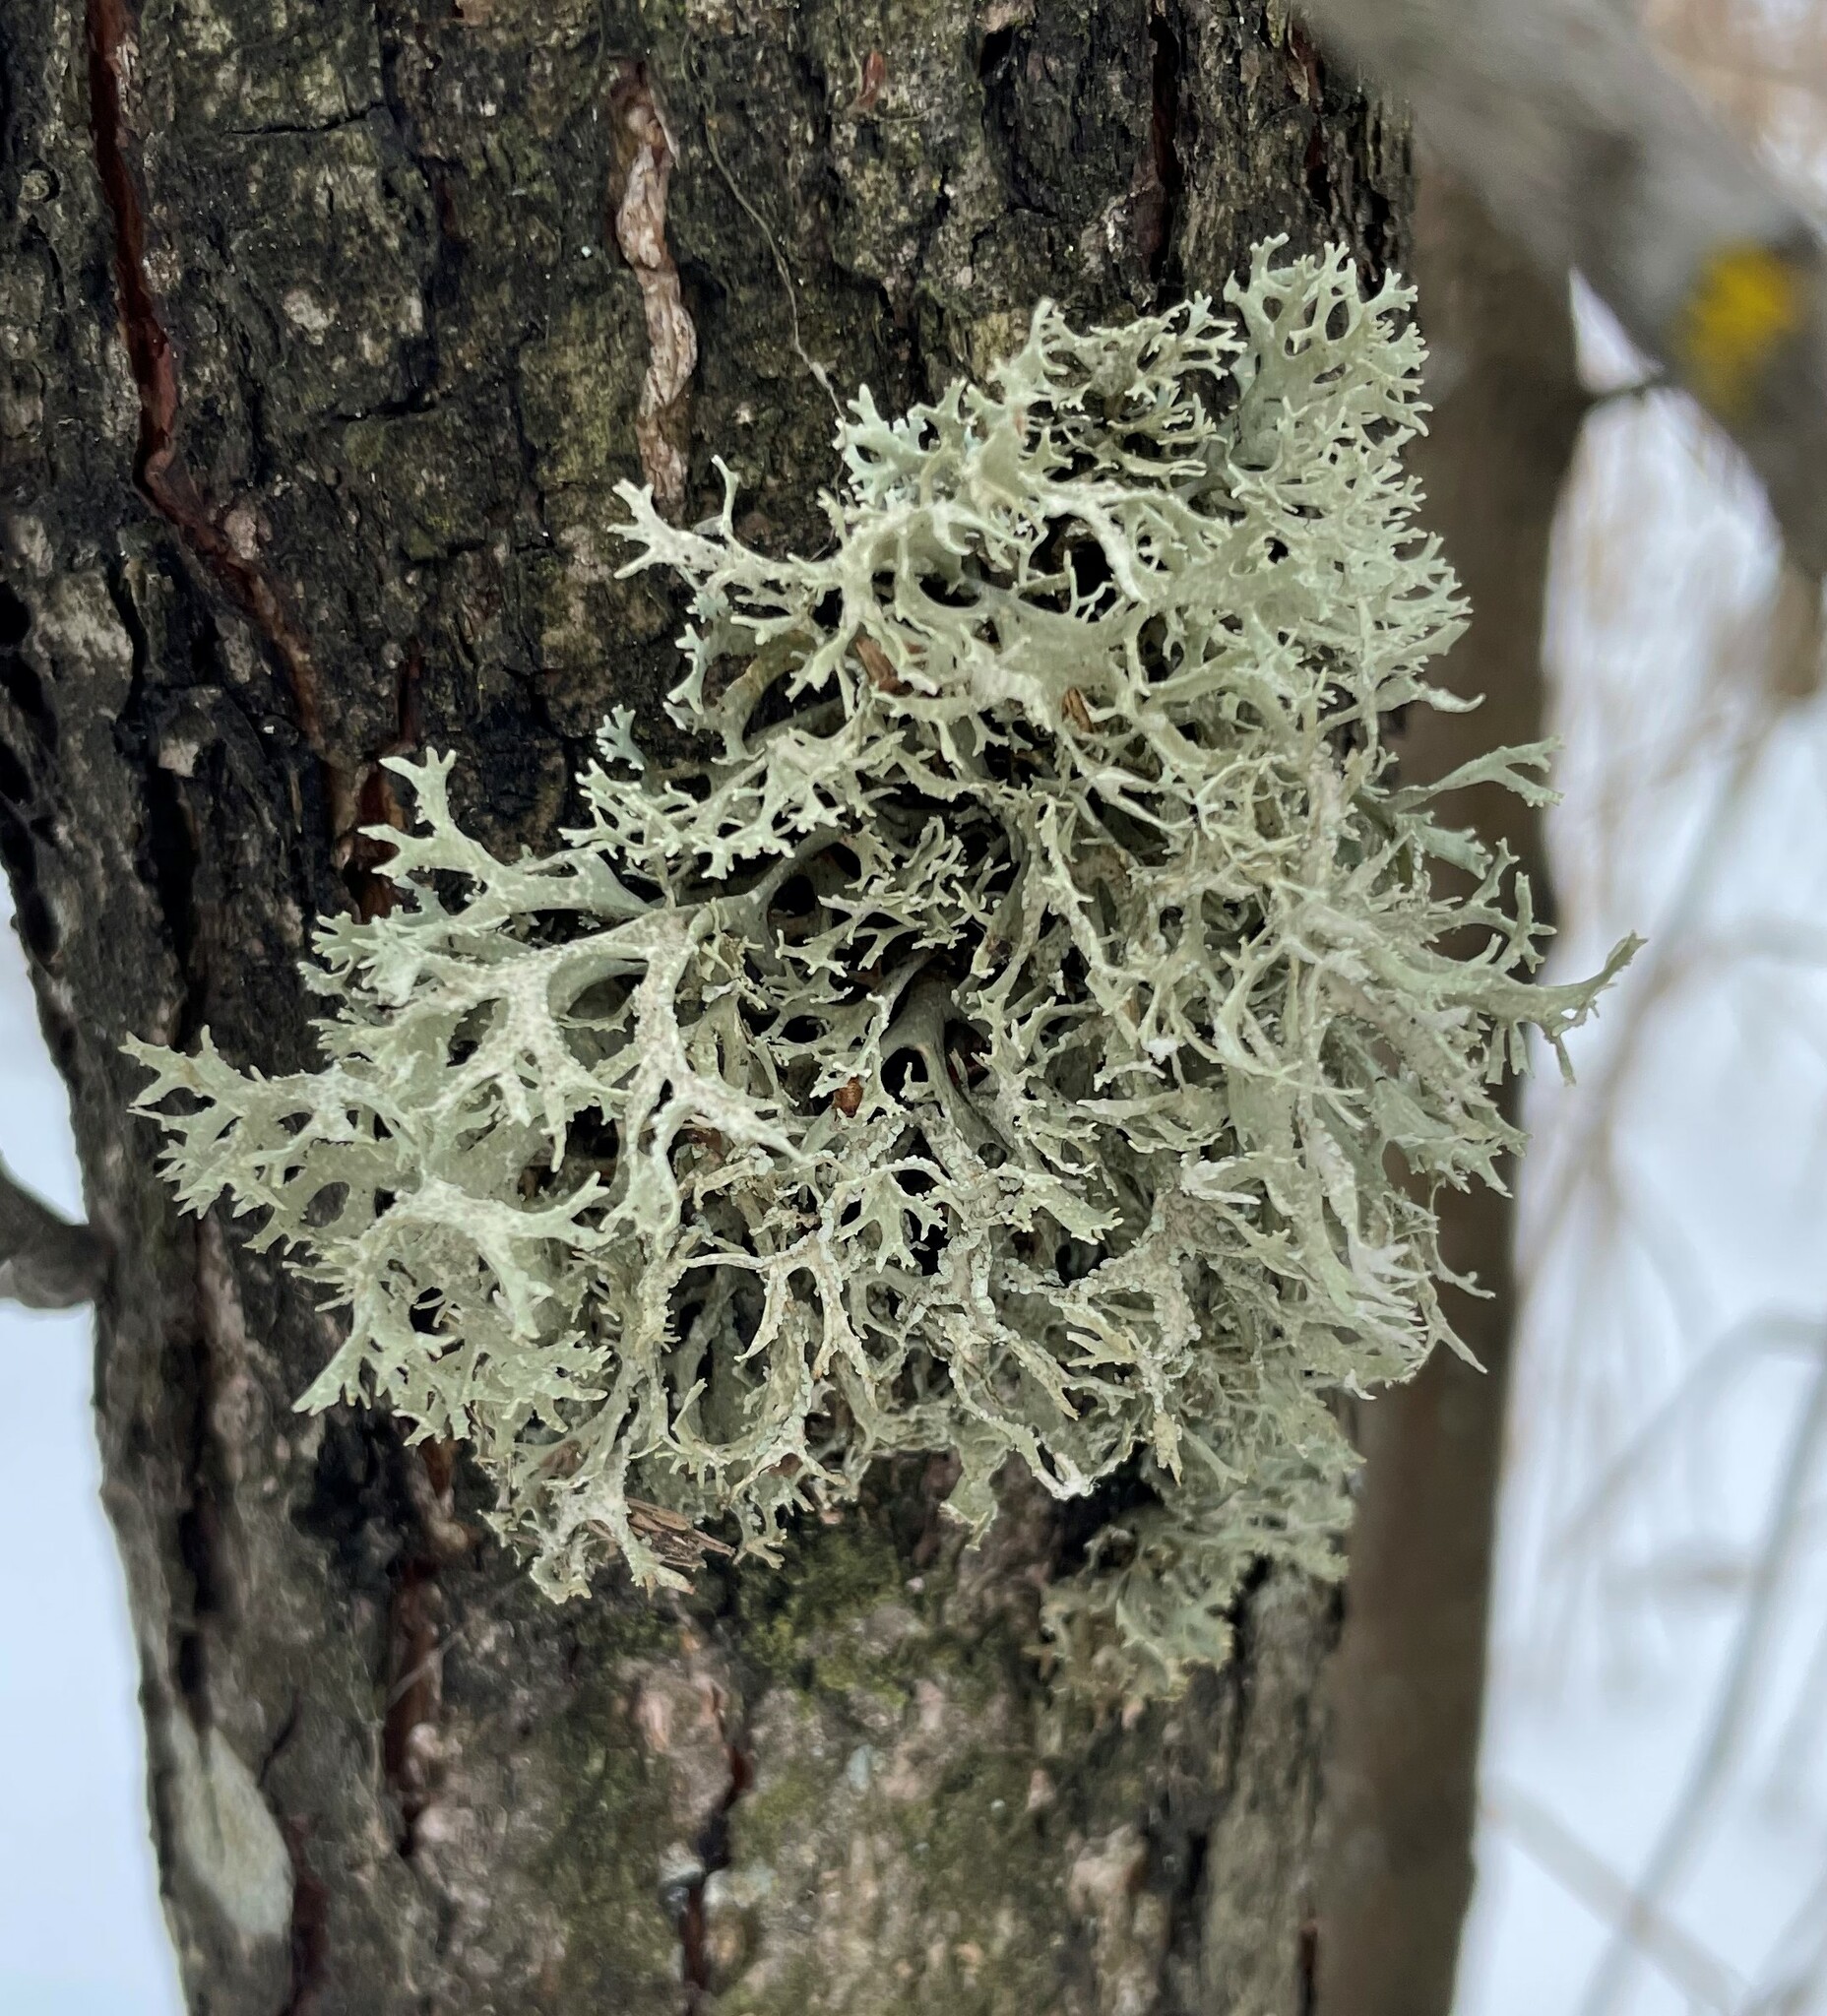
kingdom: Fungi
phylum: Ascomycota
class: Lecanoromycetes
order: Lecanorales
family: Parmeliaceae
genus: Evernia
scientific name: Evernia prunastri
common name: Oak moss
